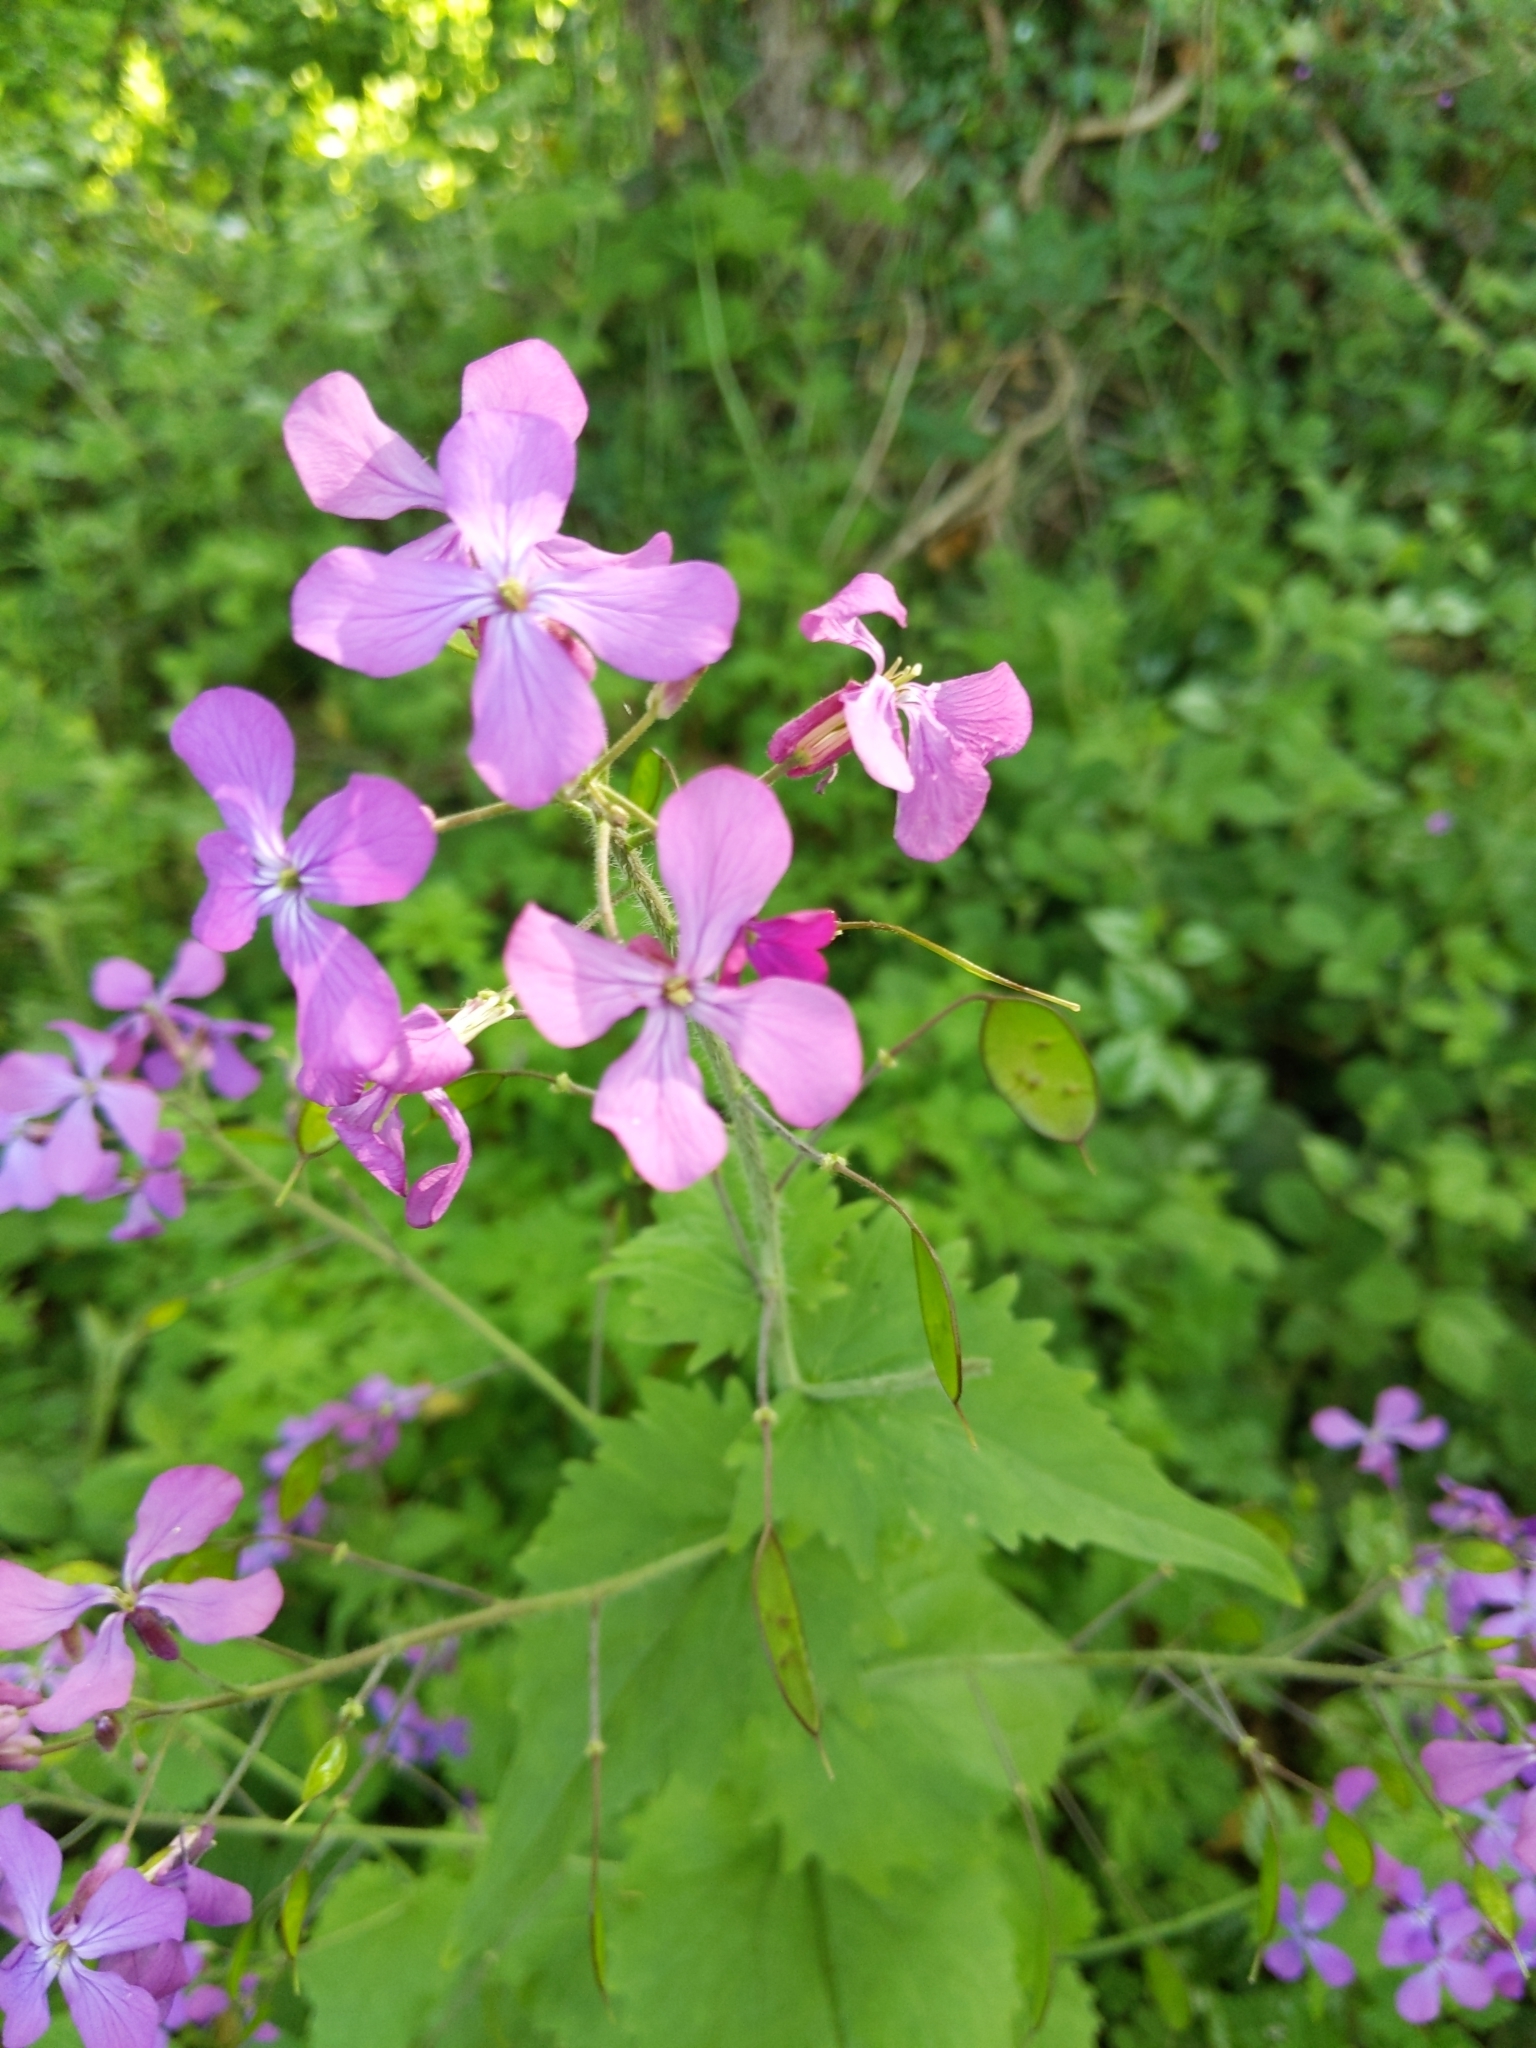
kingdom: Plantae
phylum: Tracheophyta
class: Magnoliopsida
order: Brassicales
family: Brassicaceae
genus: Lunaria
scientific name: Lunaria annua
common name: Honesty
